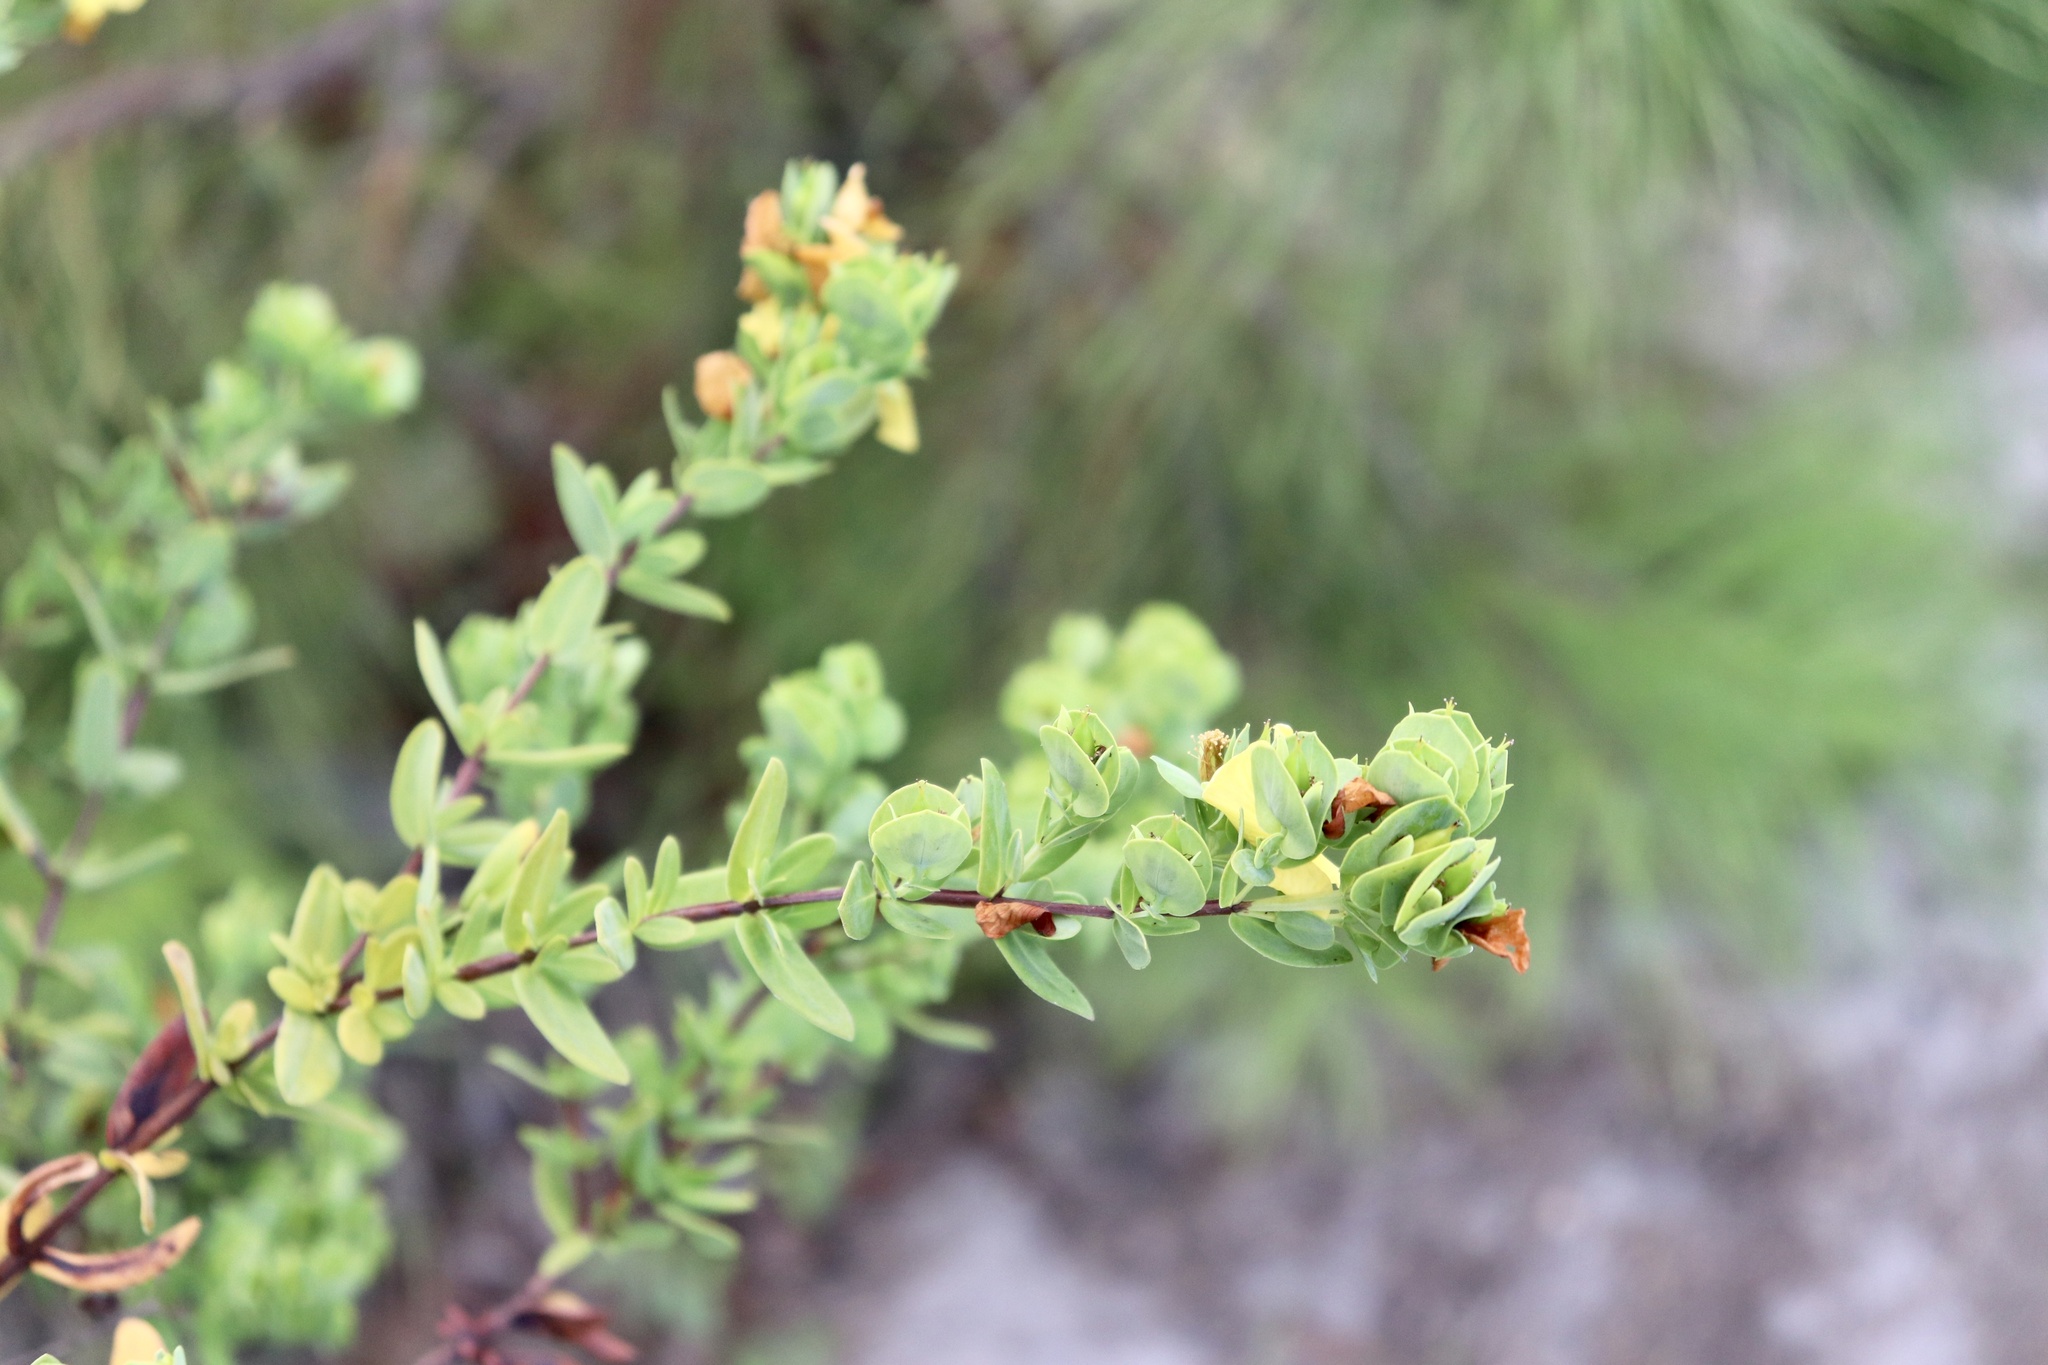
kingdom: Plantae
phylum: Tracheophyta
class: Magnoliopsida
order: Malpighiales
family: Hypericaceae
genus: Hypericum
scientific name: Hypericum crux-andreae
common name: St.-peter's-wort
